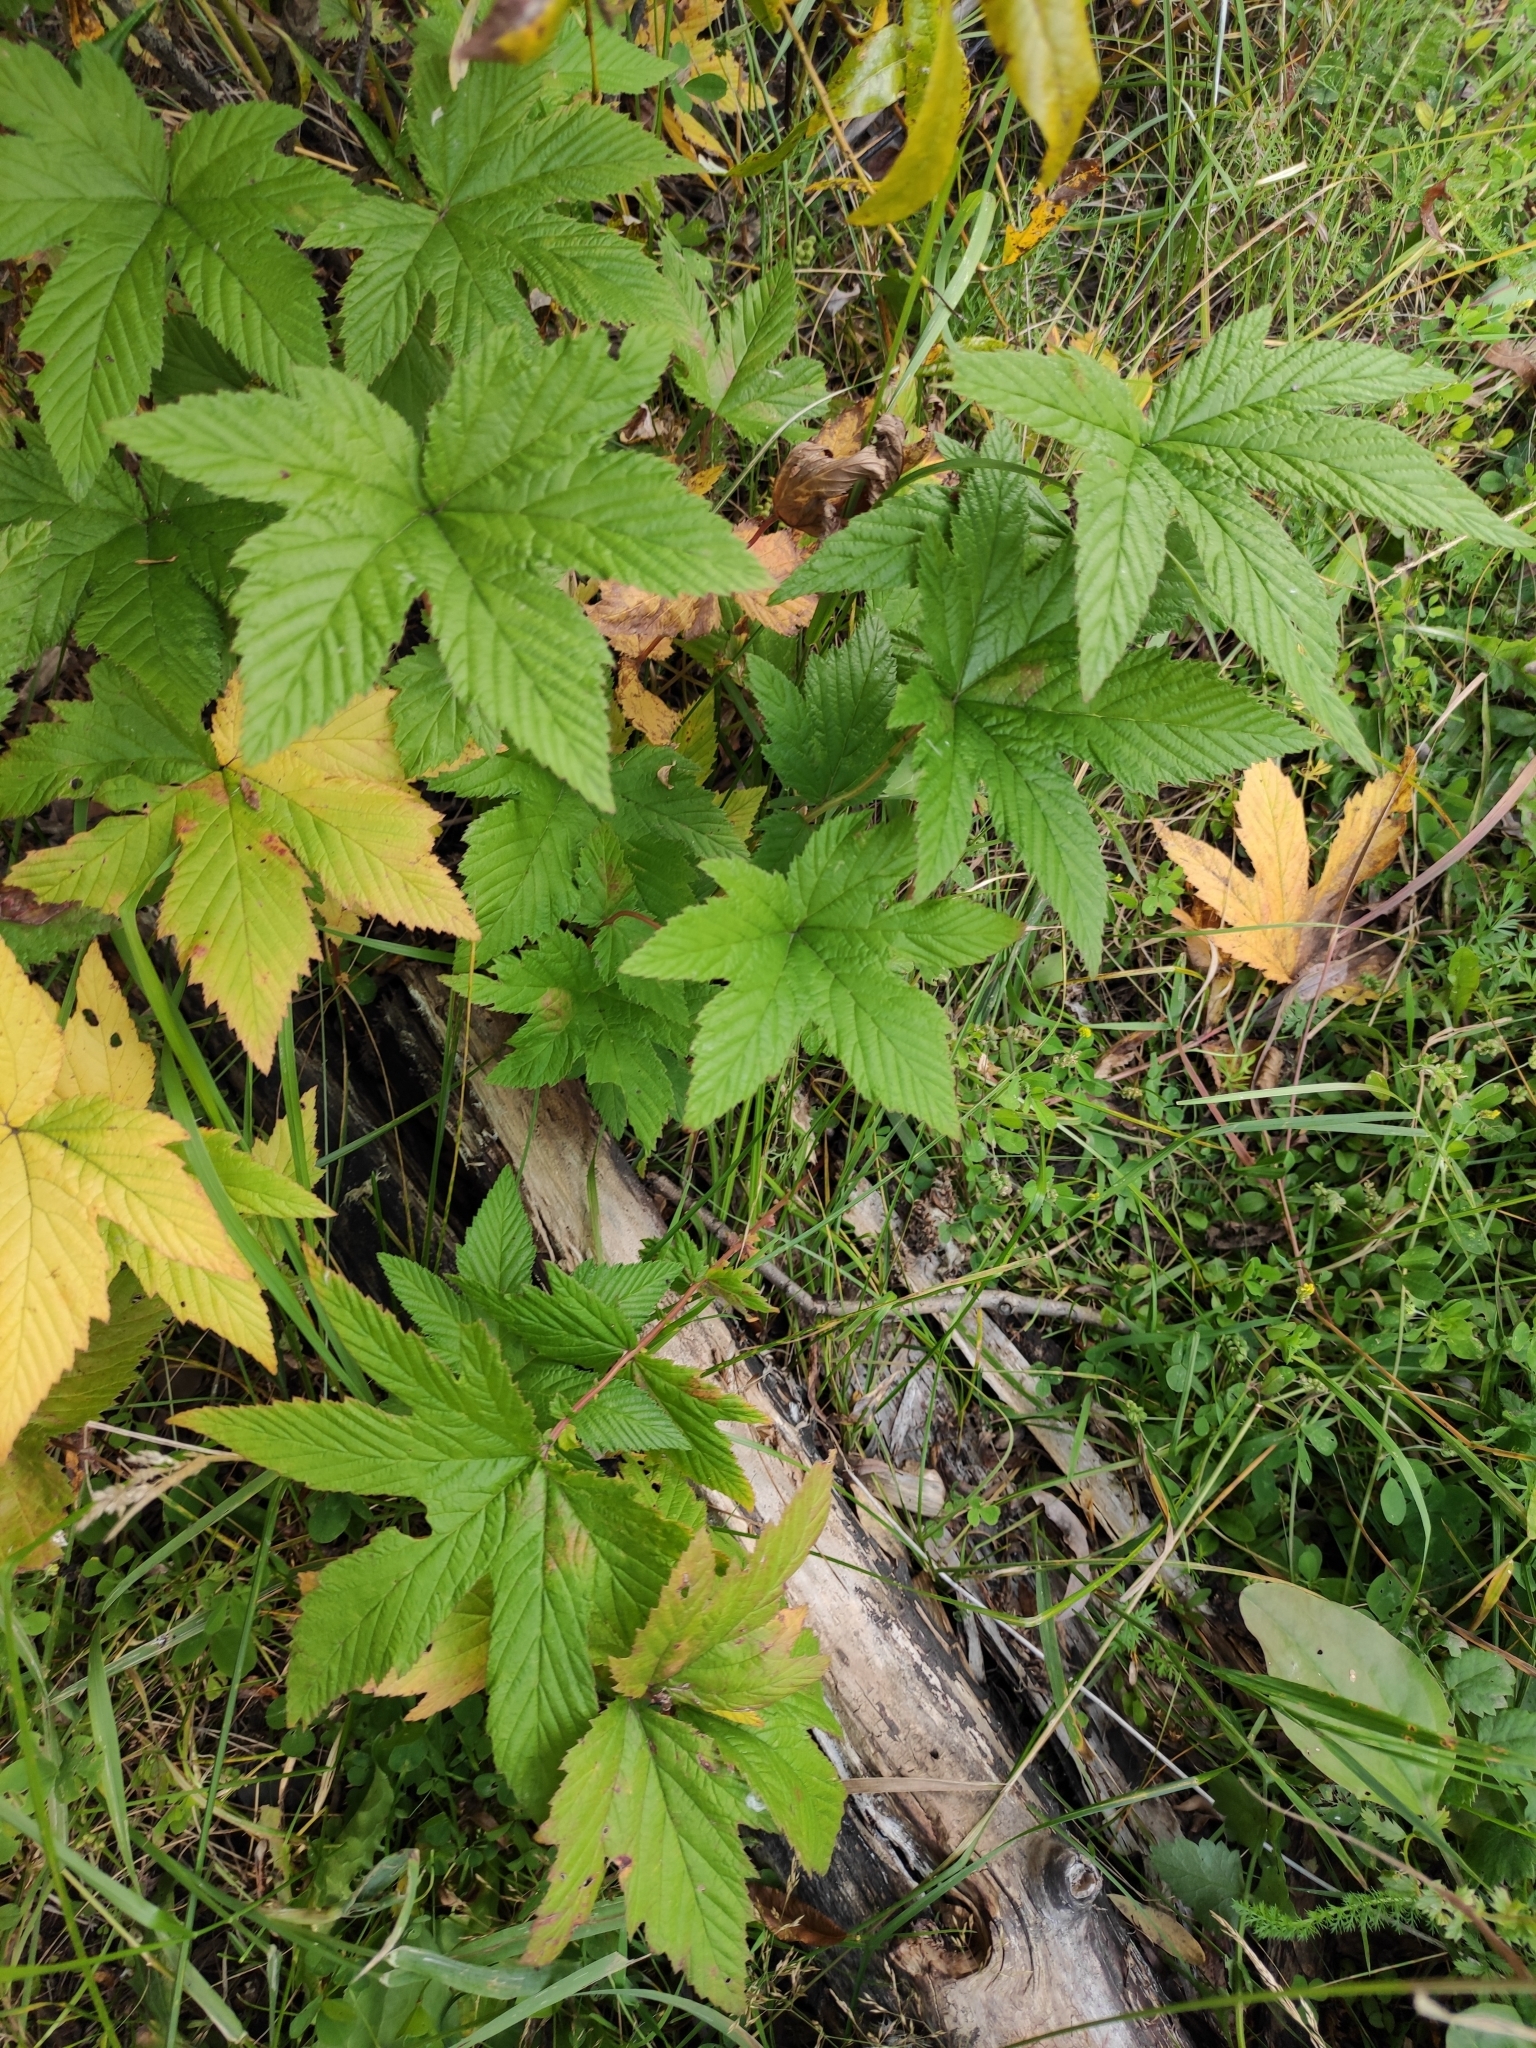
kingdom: Plantae
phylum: Tracheophyta
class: Magnoliopsida
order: Rosales
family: Rosaceae
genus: Filipendula
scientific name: Filipendula digitata
